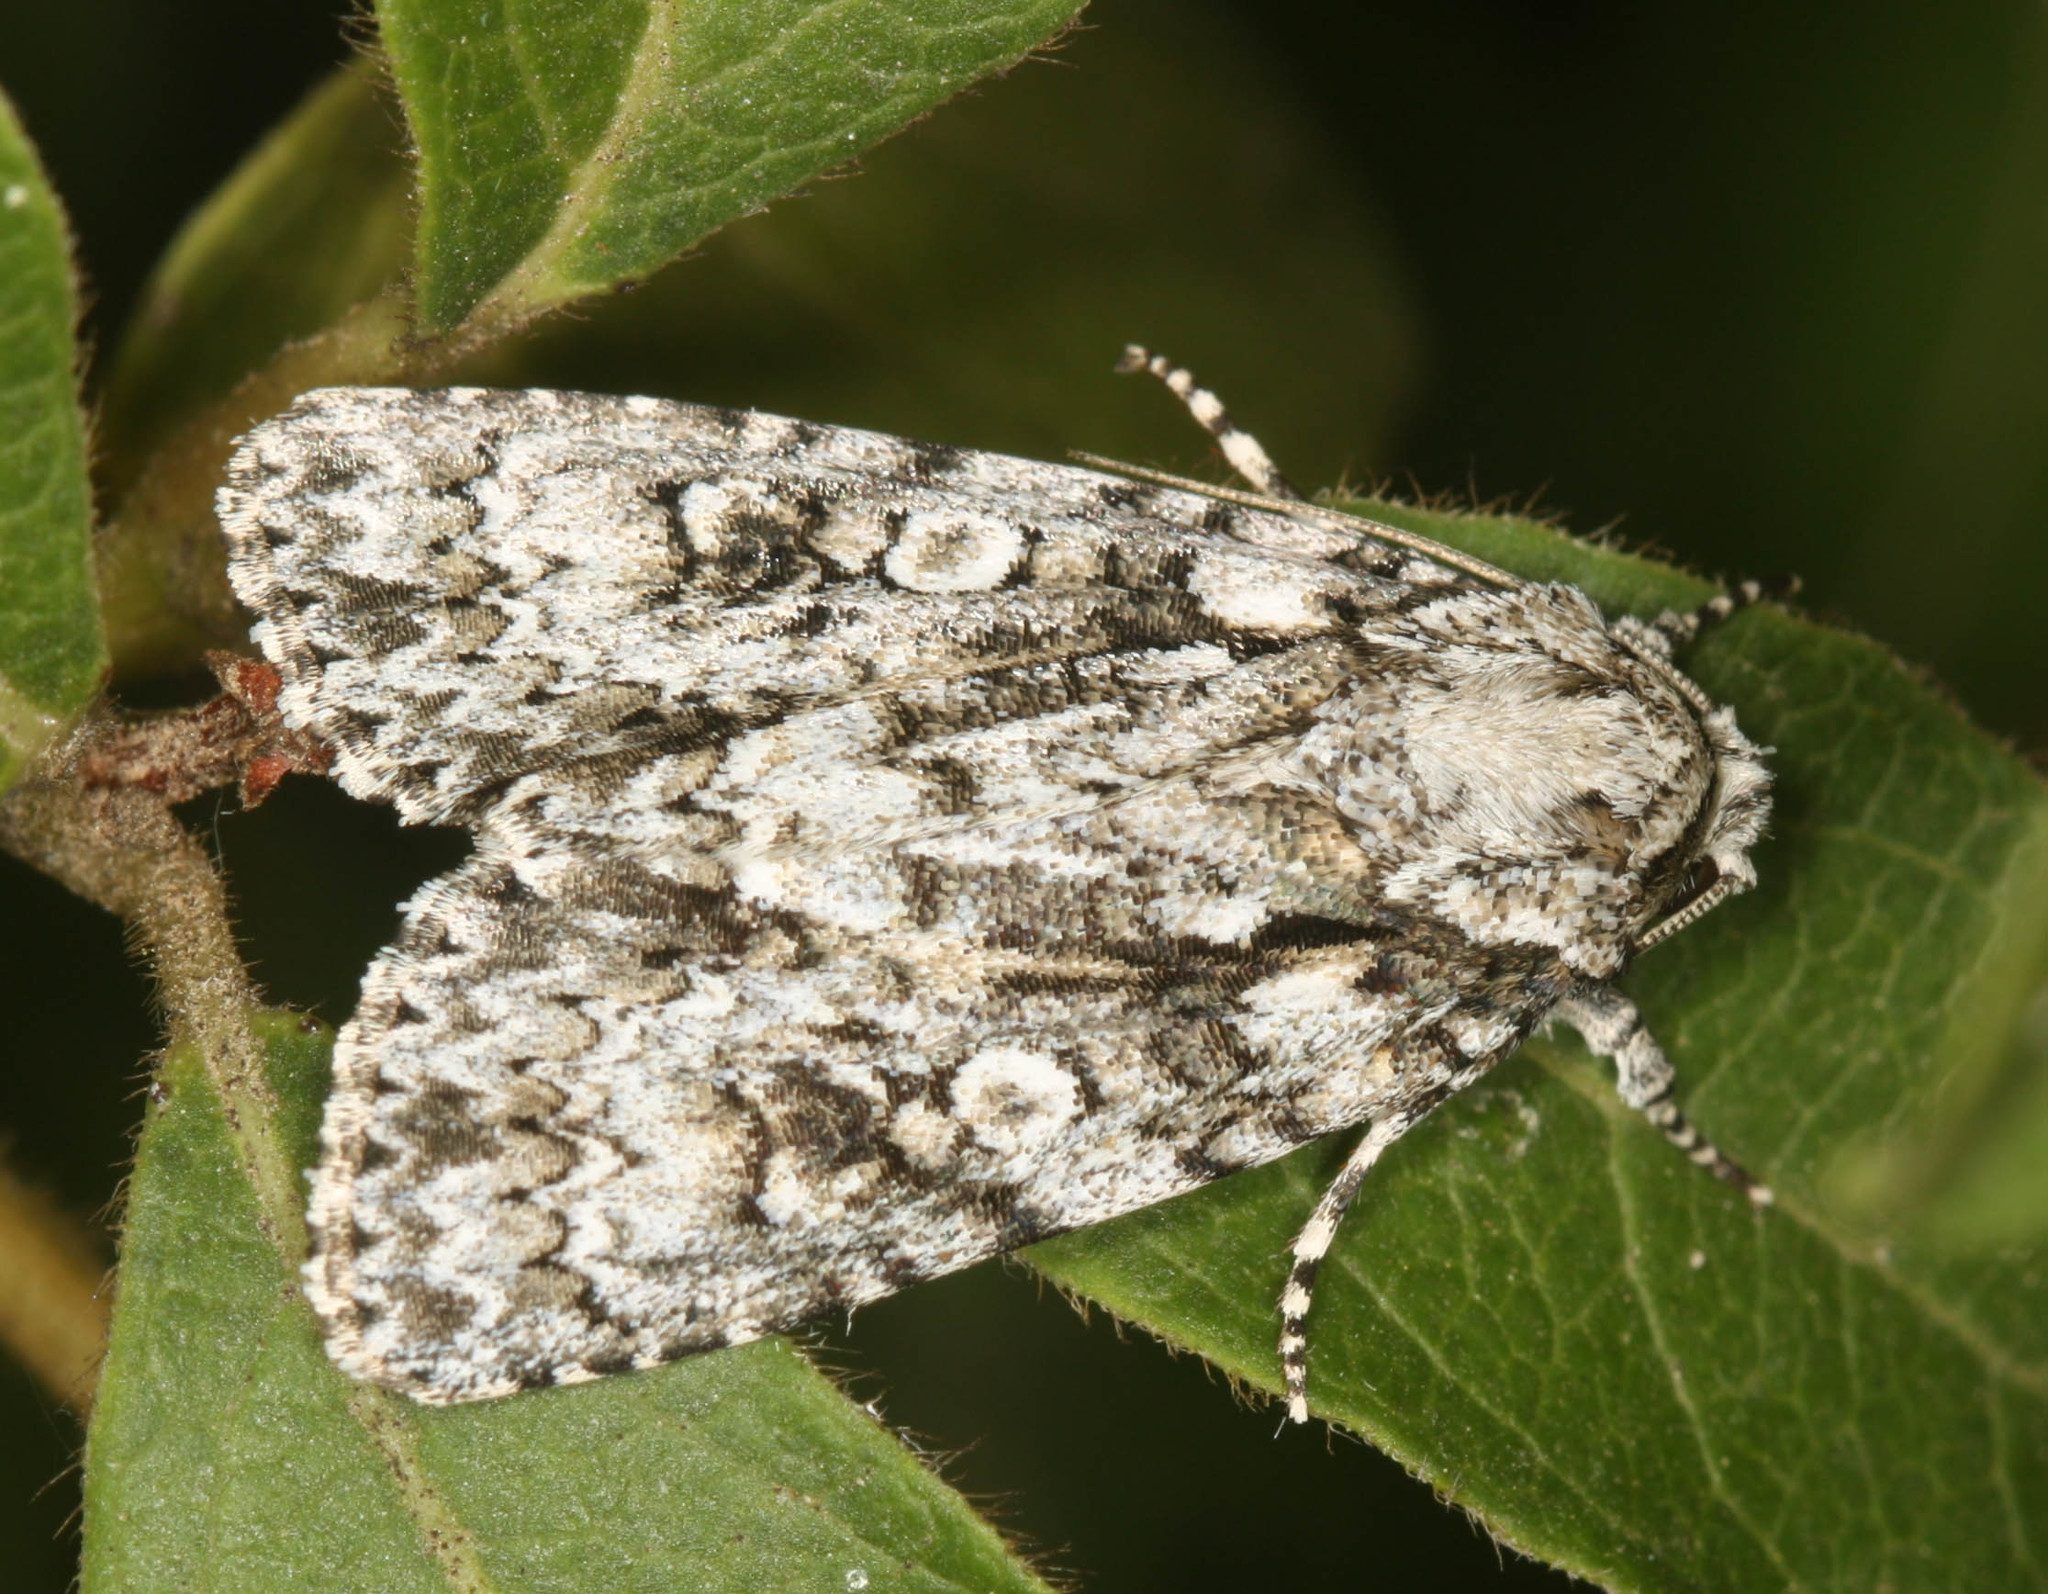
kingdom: Animalia
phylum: Arthropoda
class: Insecta
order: Lepidoptera
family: Noctuidae
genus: Acronicta
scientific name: Acronicta marmorata
